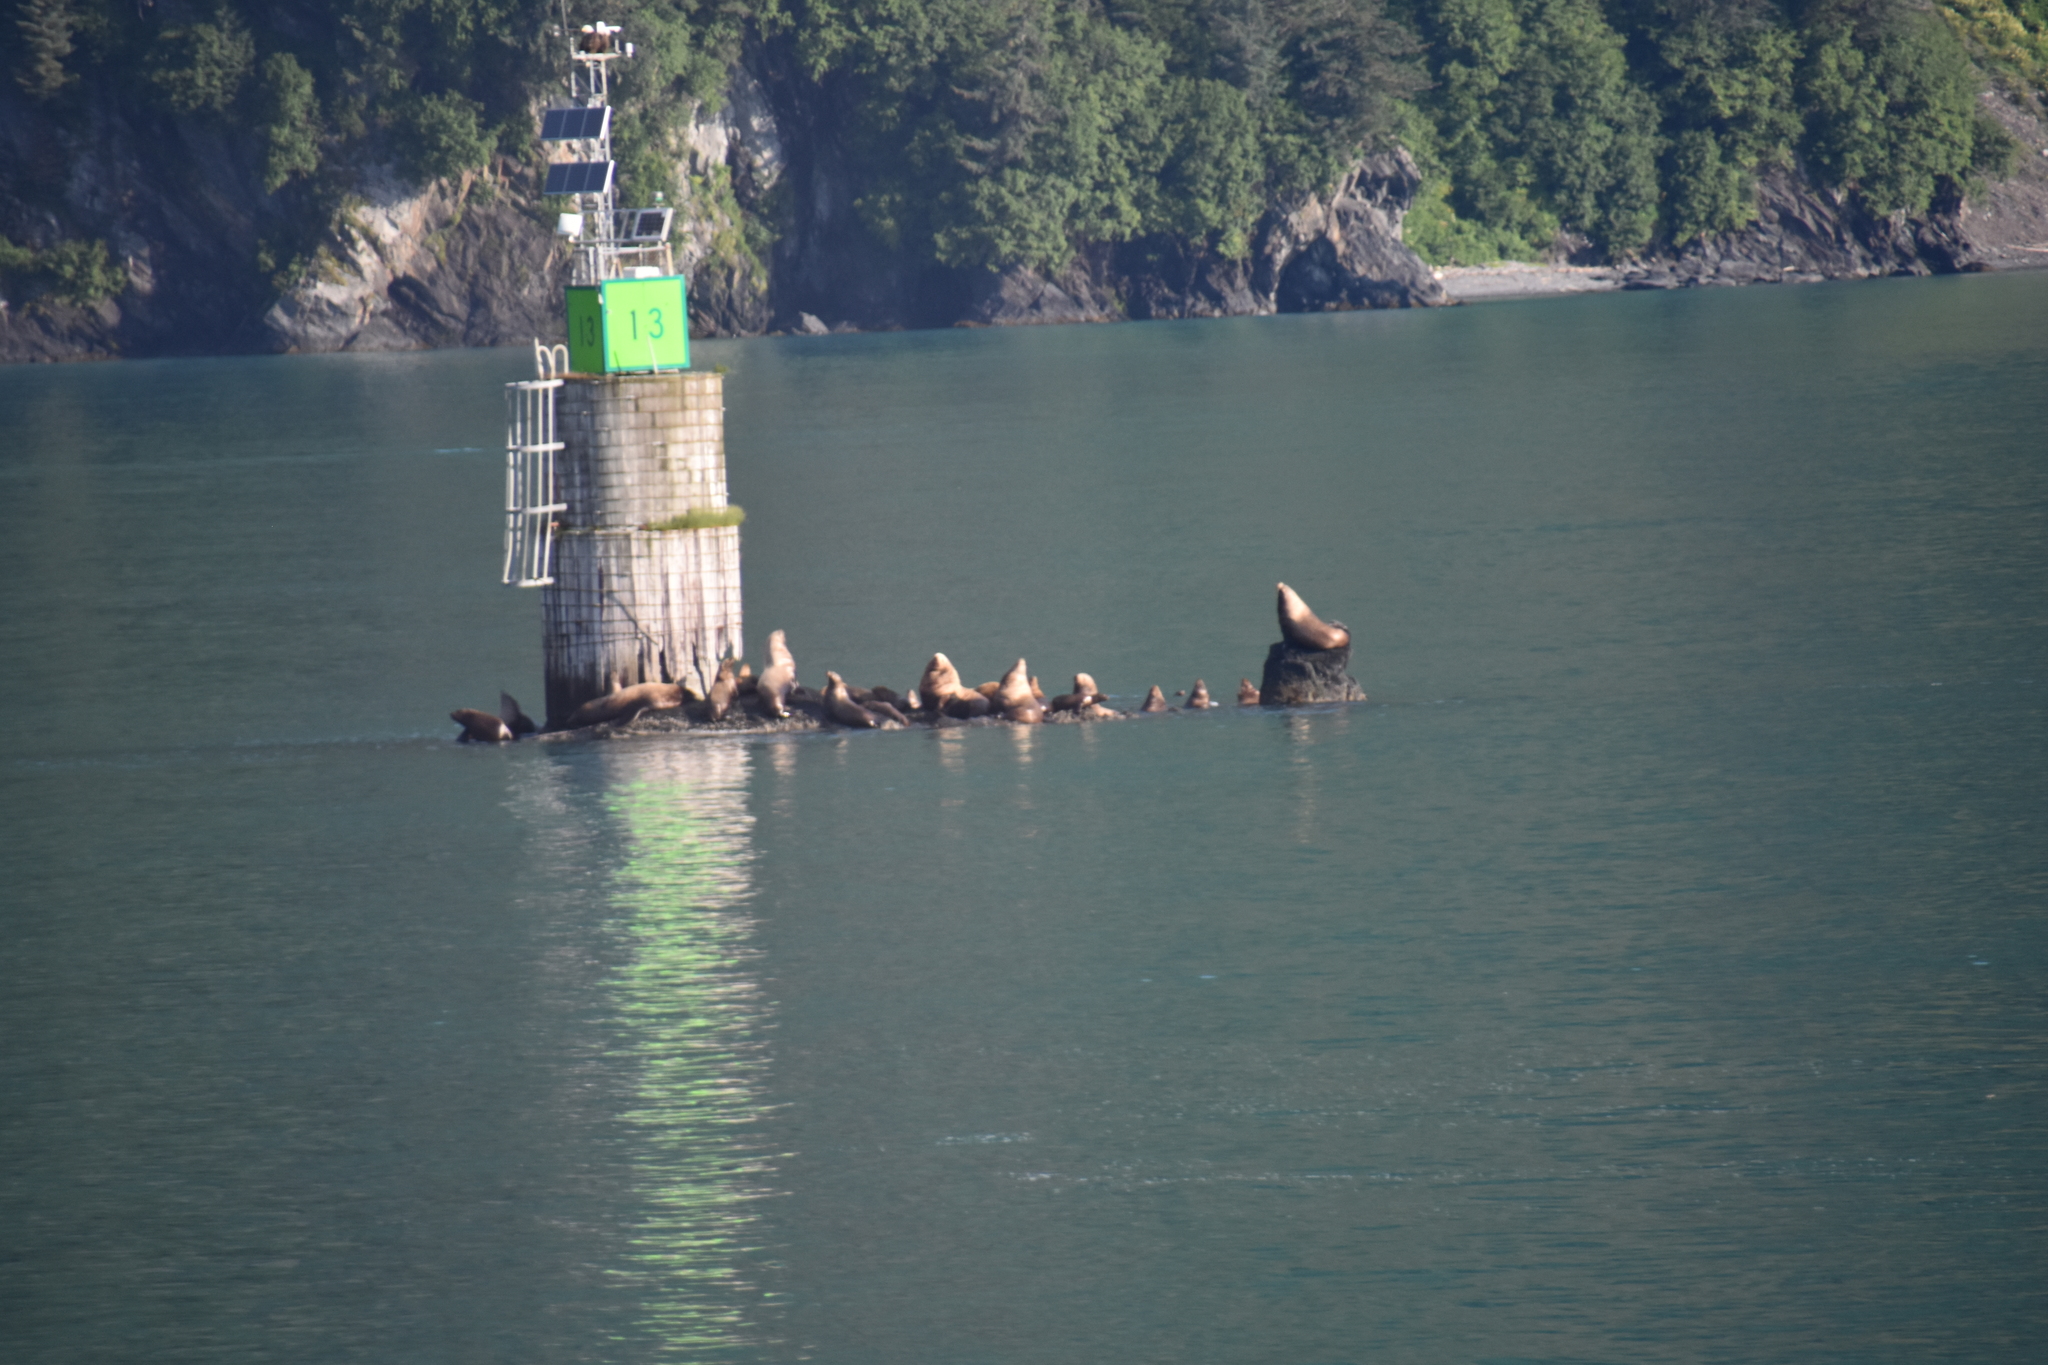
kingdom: Animalia
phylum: Chordata
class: Mammalia
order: Carnivora
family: Otariidae
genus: Eumetopias
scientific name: Eumetopias jubatus
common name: Steller sea lion
